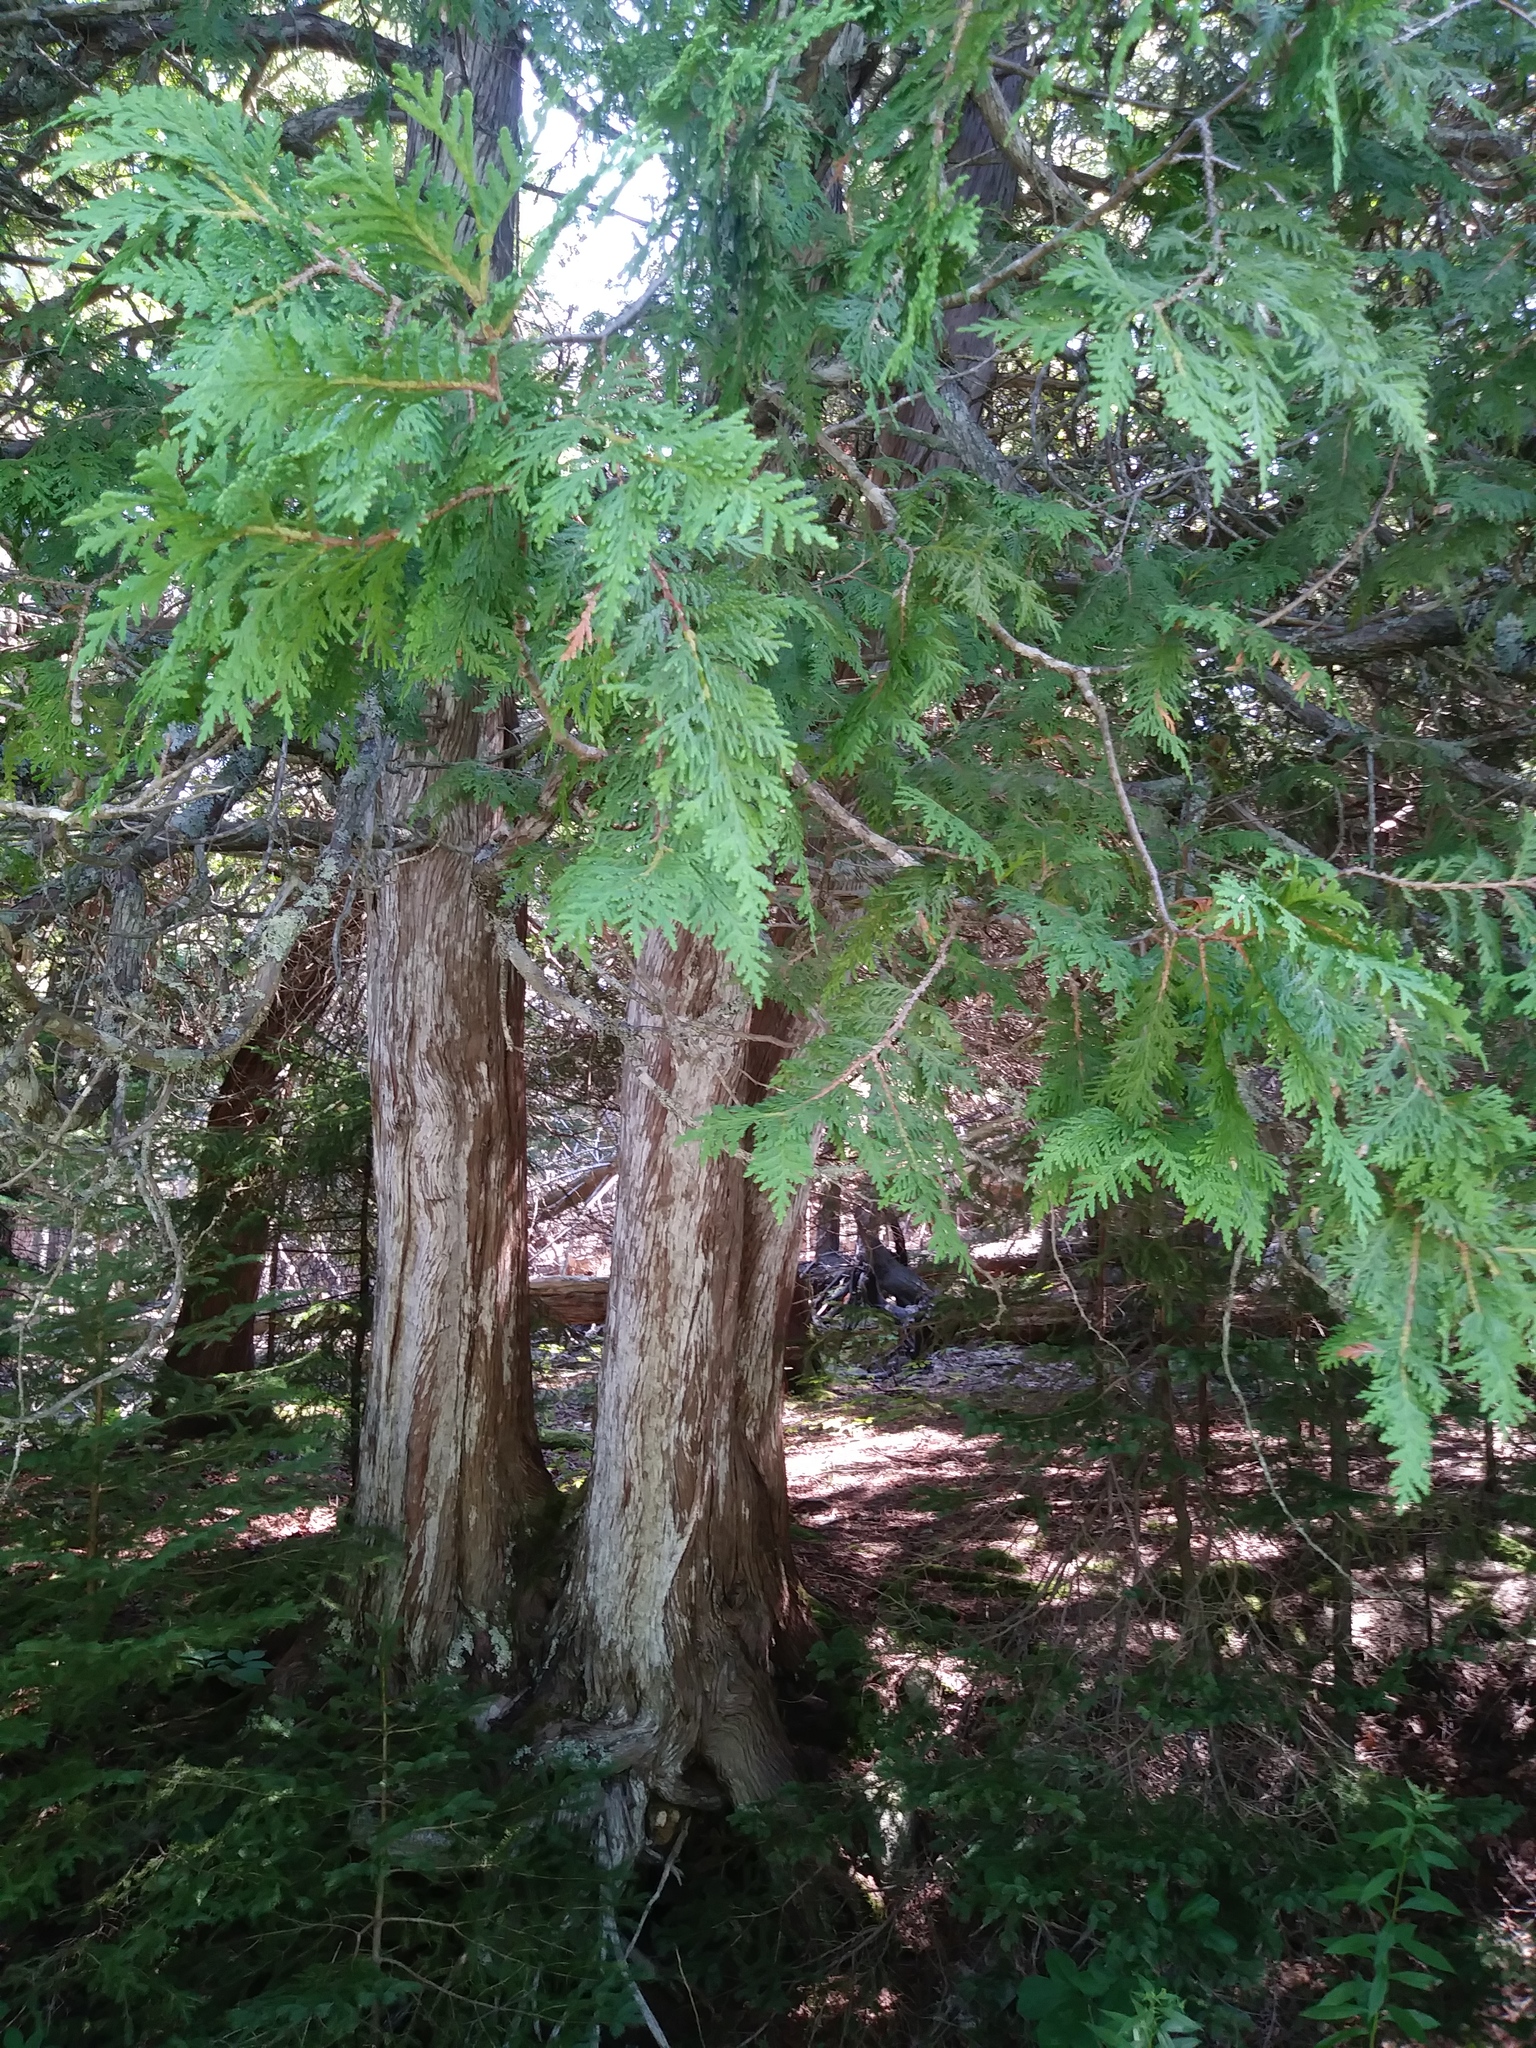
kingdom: Plantae
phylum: Tracheophyta
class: Pinopsida
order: Pinales
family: Cupressaceae
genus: Thuja
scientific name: Thuja occidentalis
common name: Northern white-cedar
